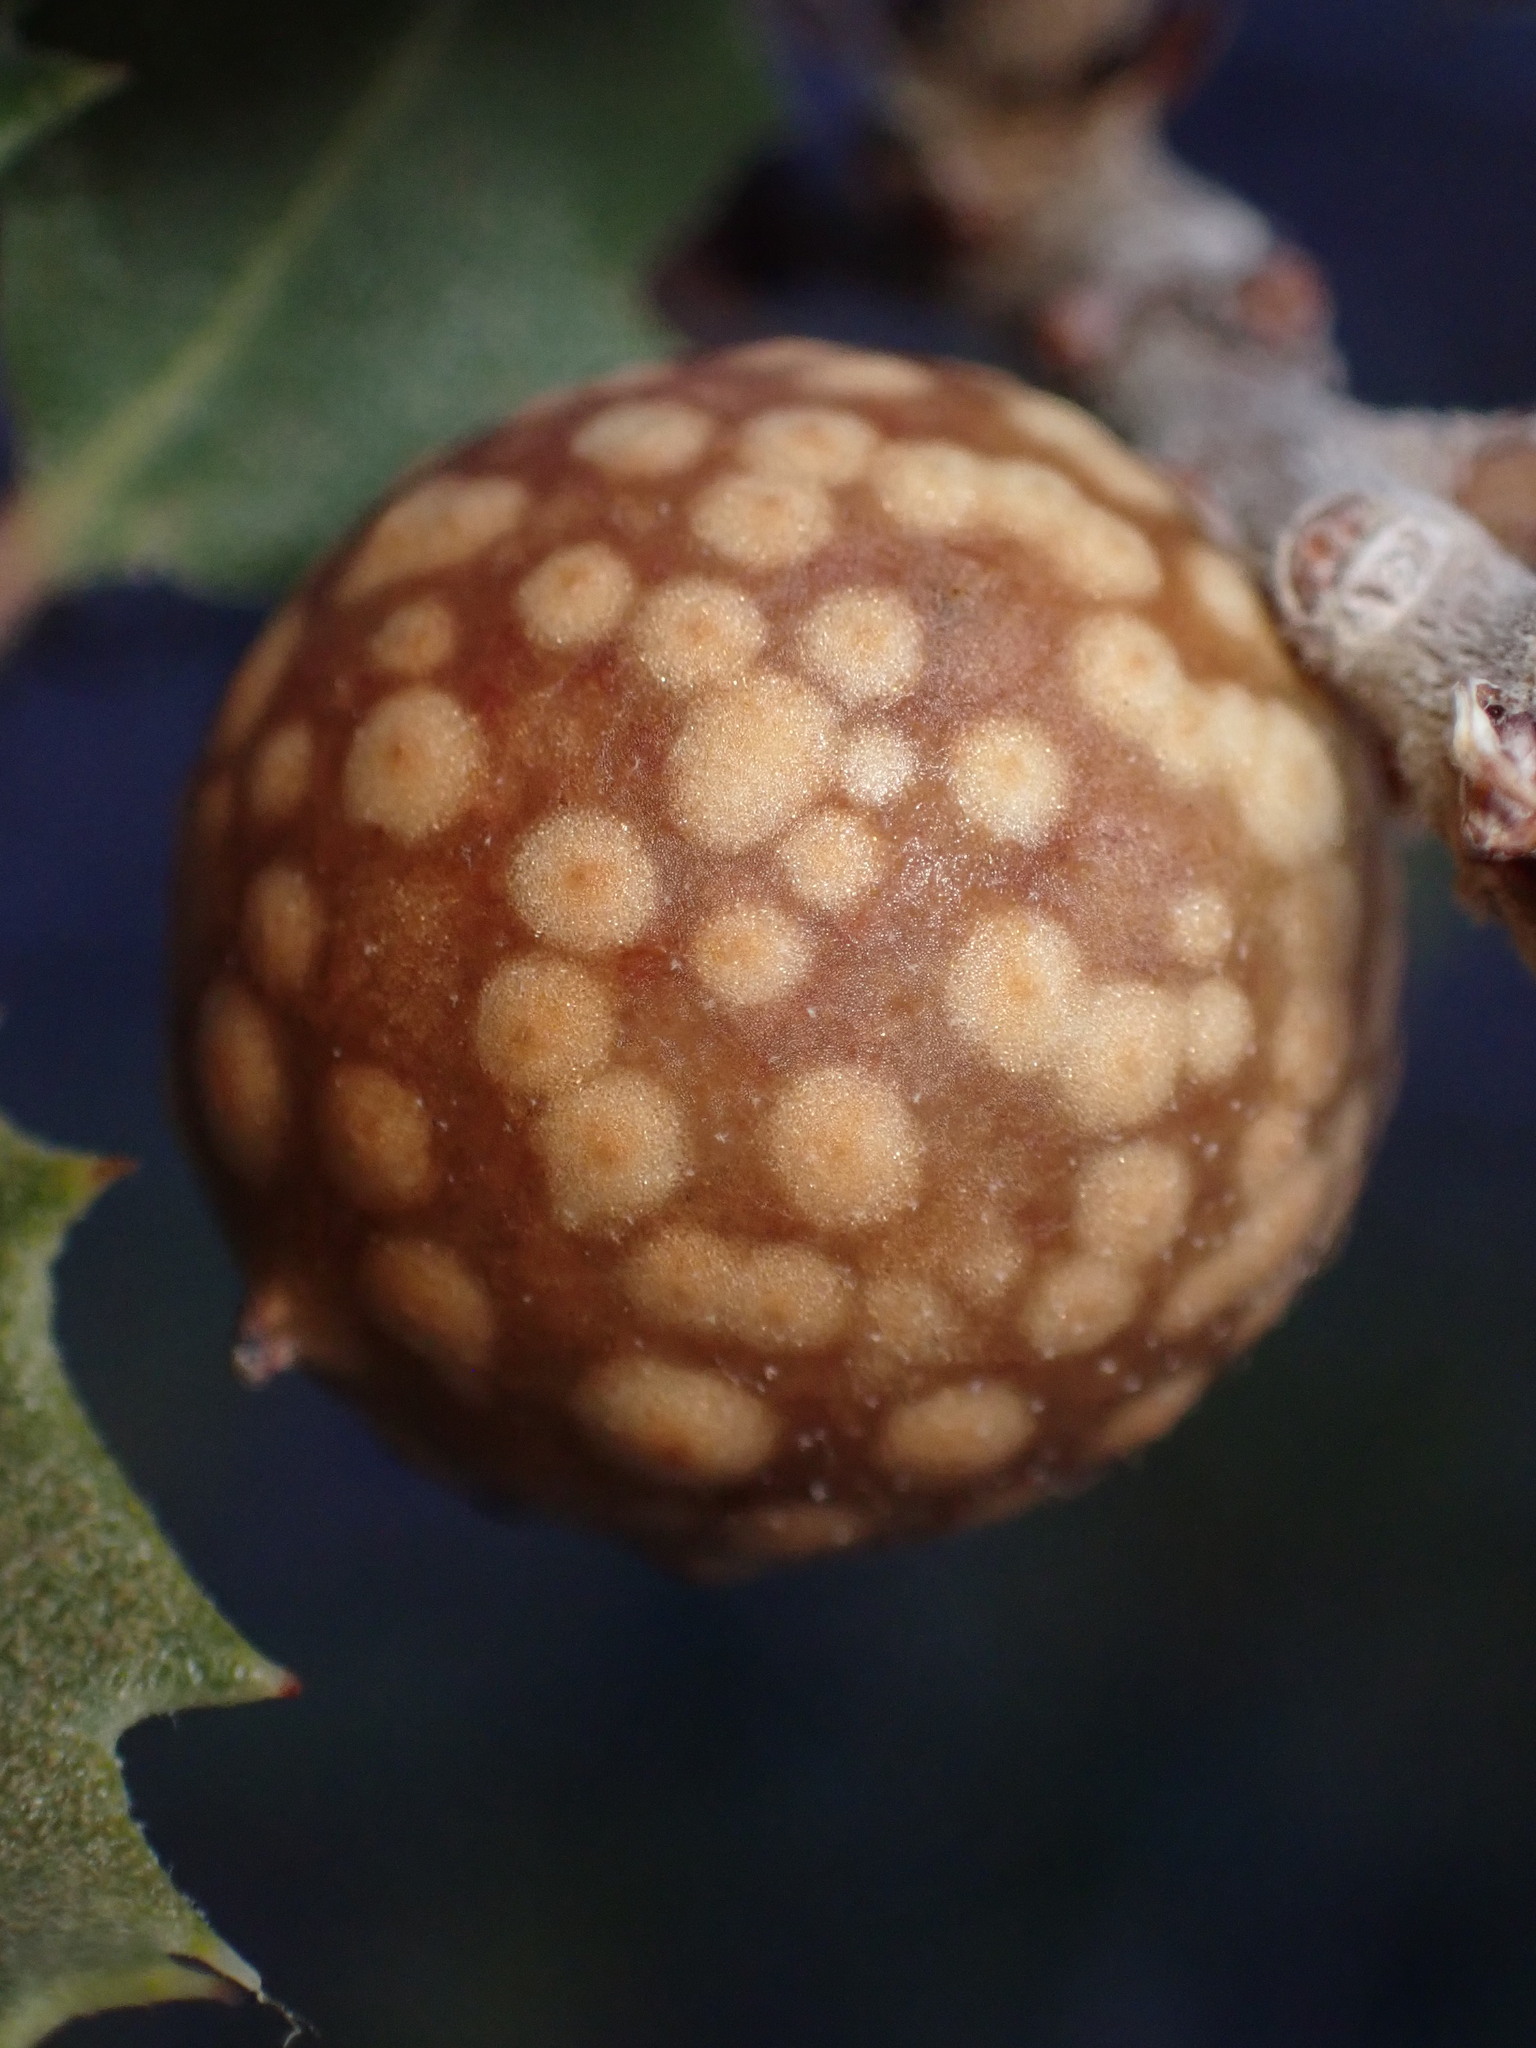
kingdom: Animalia
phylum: Arthropoda
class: Insecta
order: Hymenoptera
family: Cynipidae
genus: Burnettweldia
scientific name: Burnettweldia
